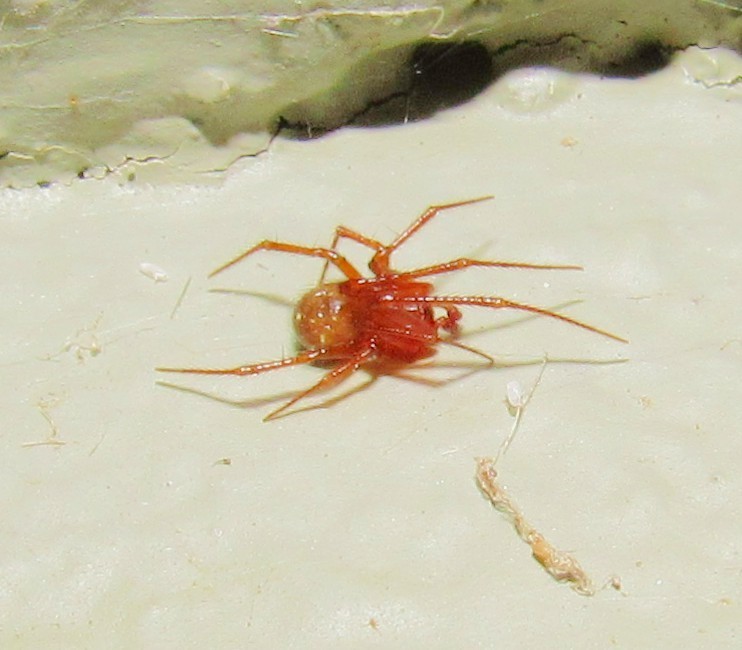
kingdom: Animalia
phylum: Arthropoda
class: Arachnida
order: Araneae
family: Theridiidae
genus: Nesticodes
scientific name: Nesticodes rufipes
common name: Cobweb spiders
